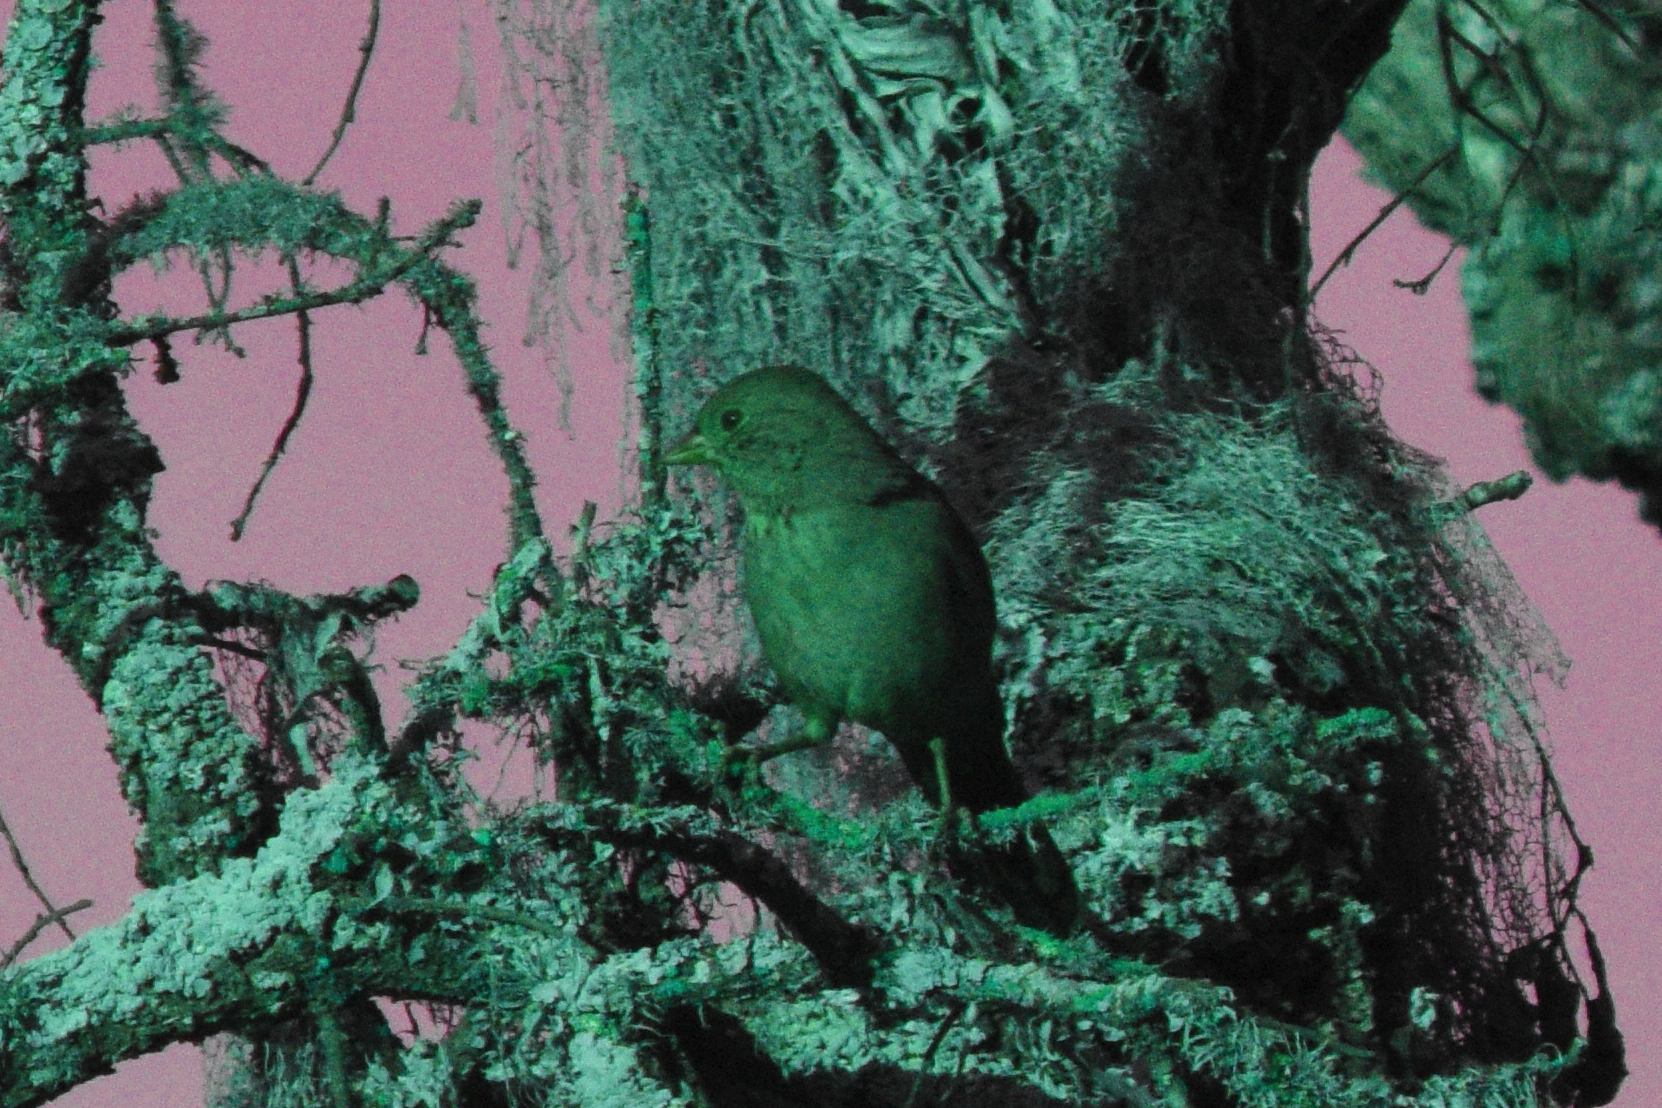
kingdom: Animalia
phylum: Chordata
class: Aves
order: Passeriformes
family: Passerellidae
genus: Melozone
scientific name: Melozone crissalis
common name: California towhee
